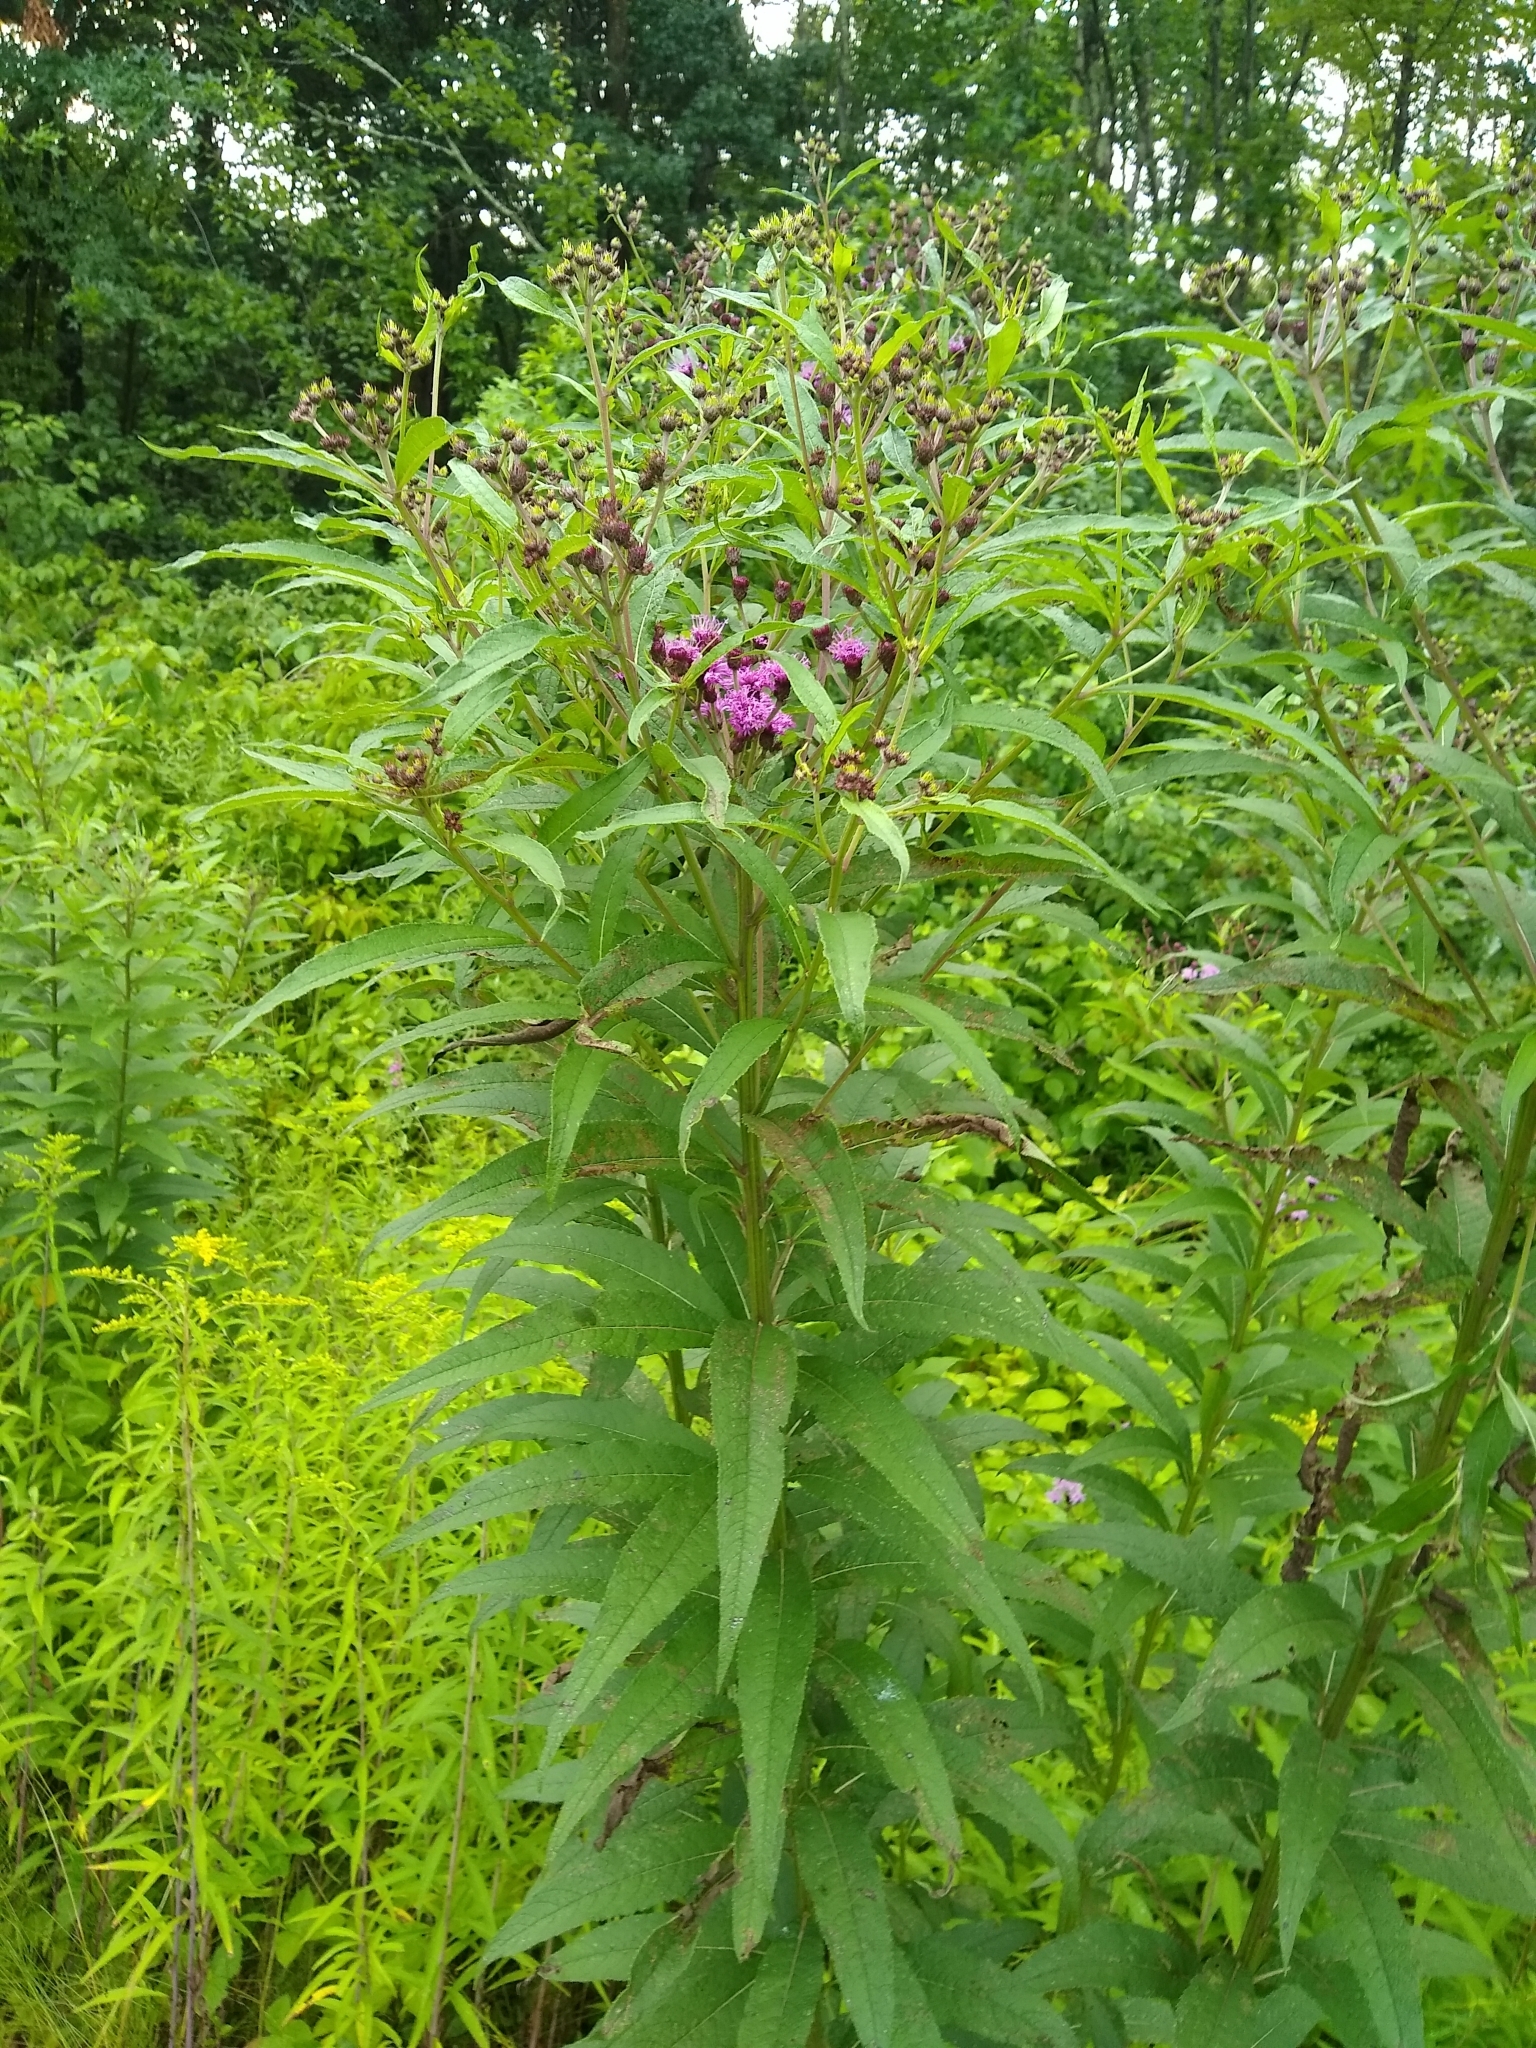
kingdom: Plantae
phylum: Tracheophyta
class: Magnoliopsida
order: Asterales
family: Asteraceae
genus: Vernonia
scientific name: Vernonia noveboracensis
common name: New york ironweed
